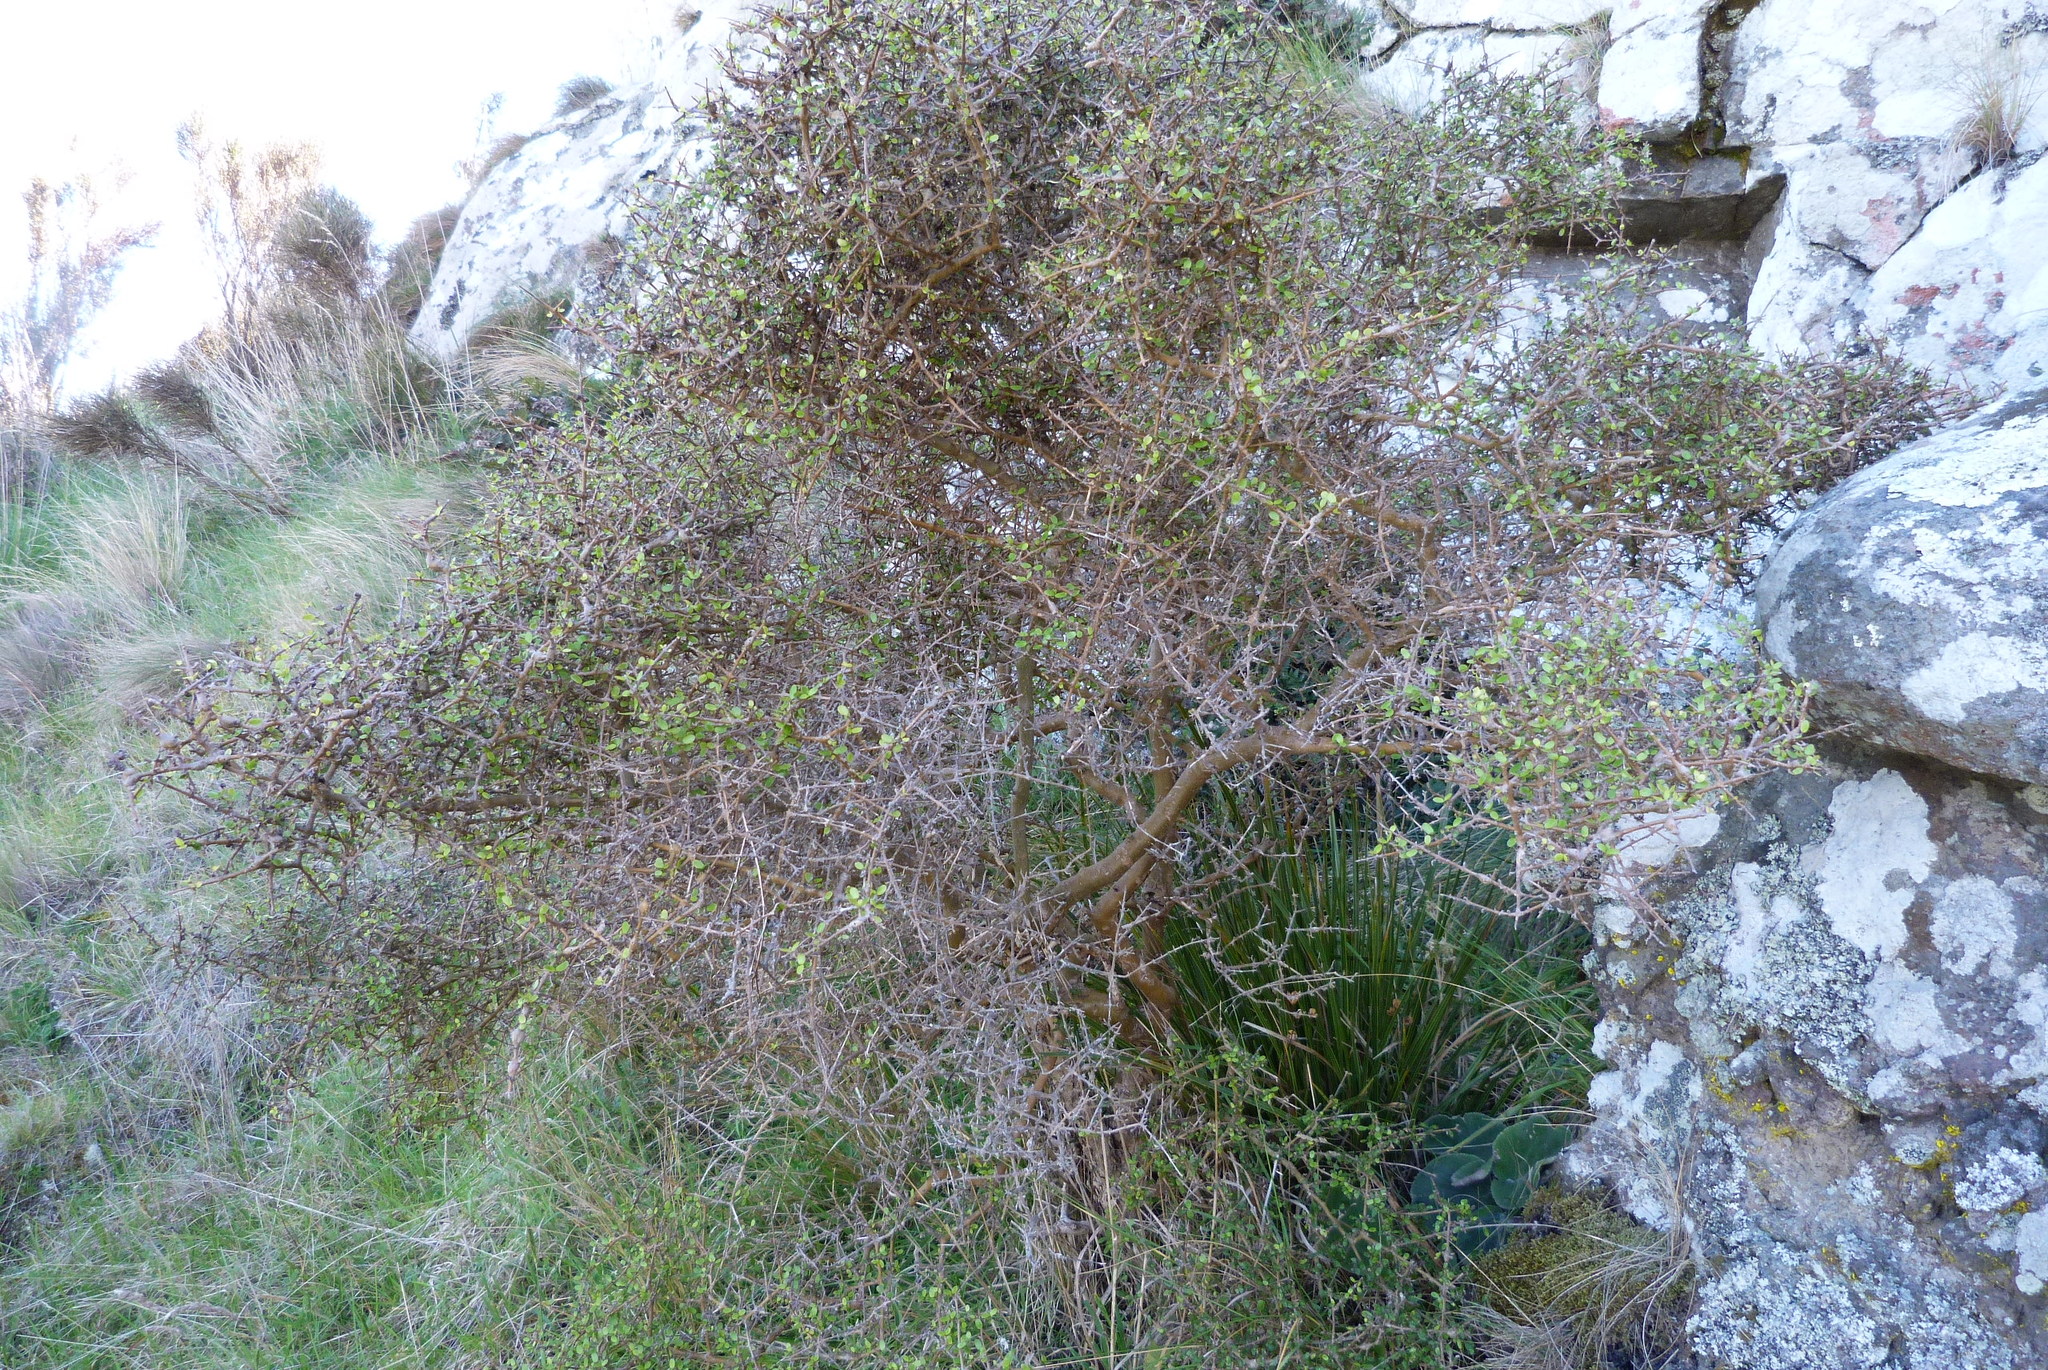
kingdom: Plantae
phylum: Tracheophyta
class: Magnoliopsida
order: Gentianales
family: Rubiaceae
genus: Coprosma
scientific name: Coprosma wallii
